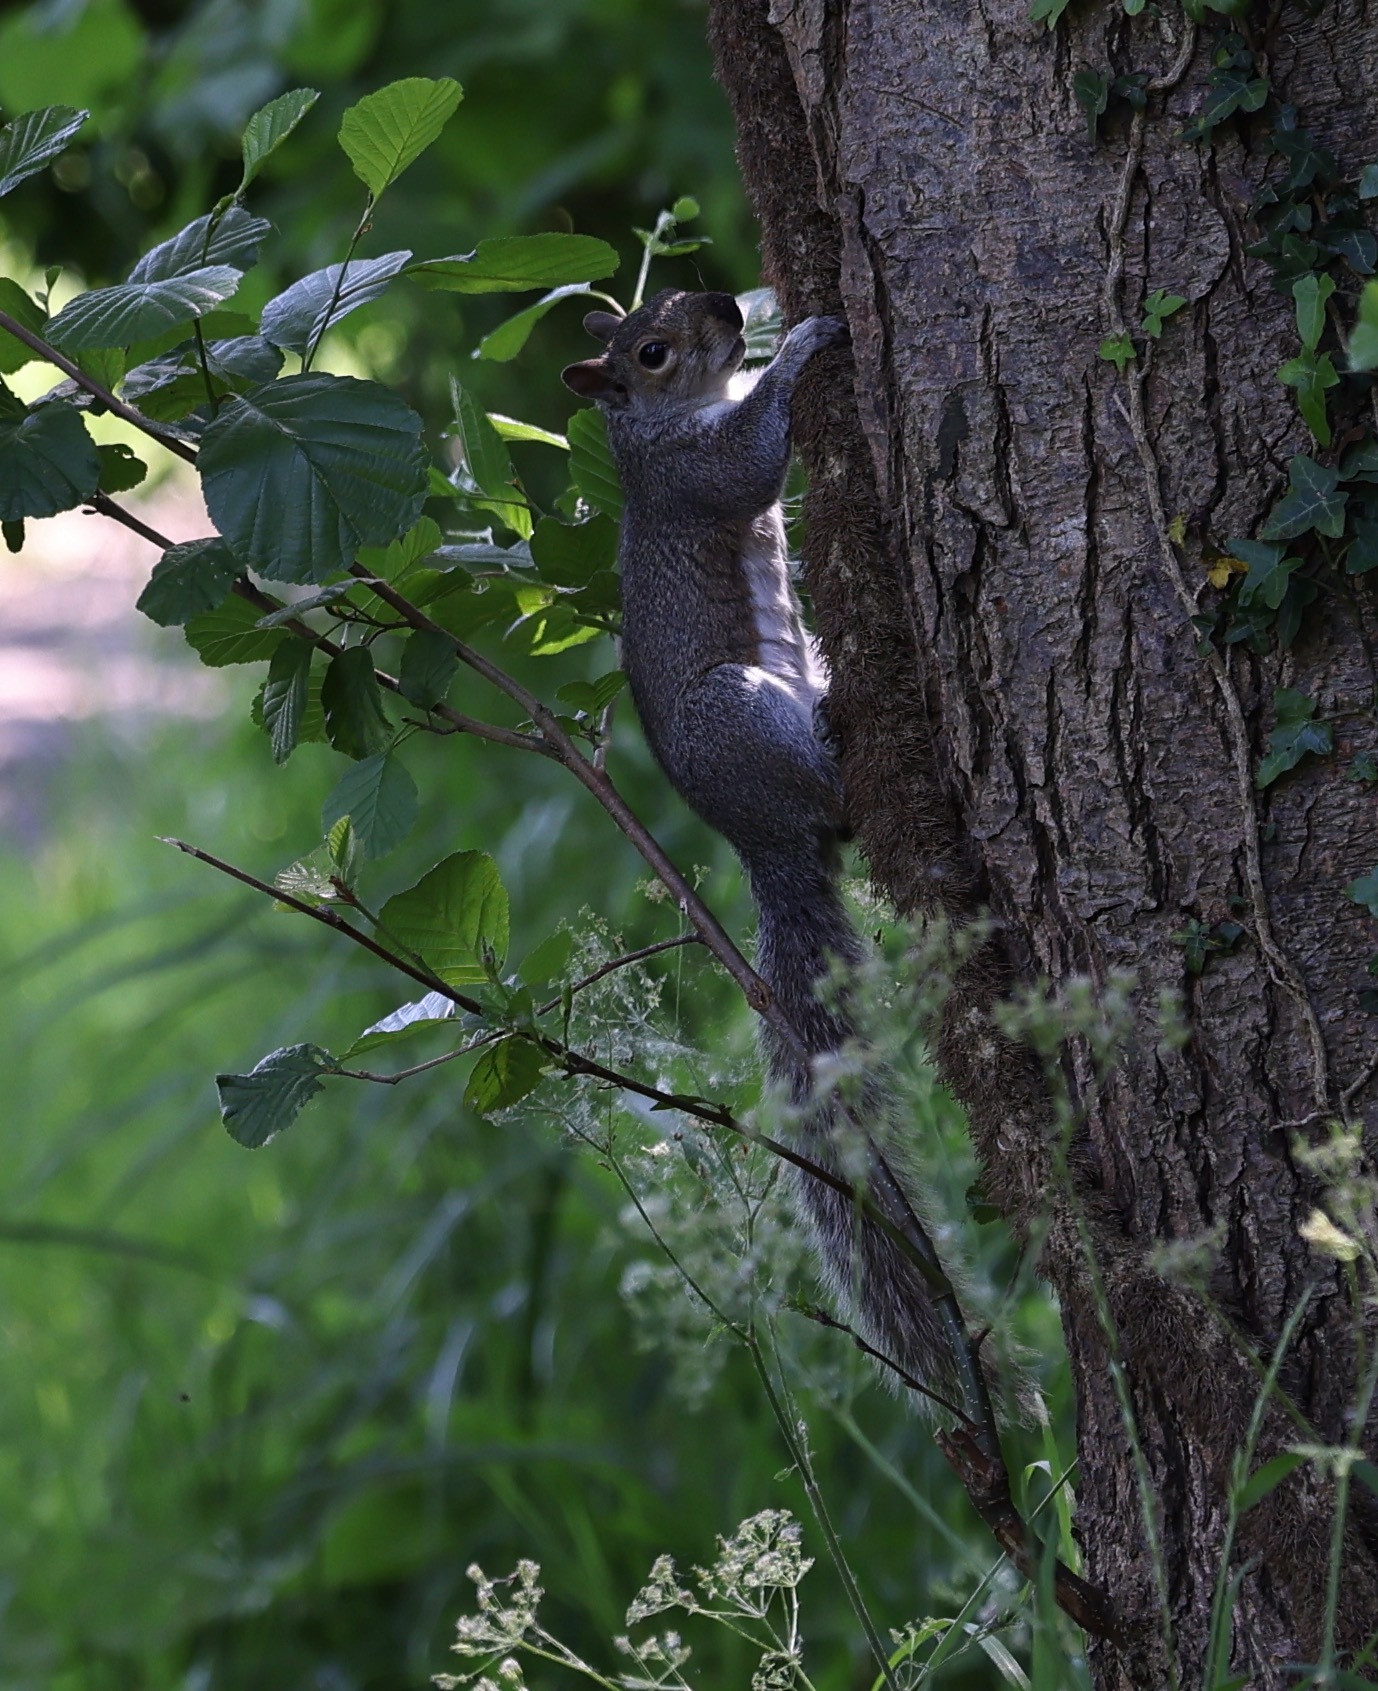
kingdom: Animalia
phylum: Chordata
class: Mammalia
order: Rodentia
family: Sciuridae
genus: Sciurus
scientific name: Sciurus carolinensis
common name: Eastern gray squirrel
